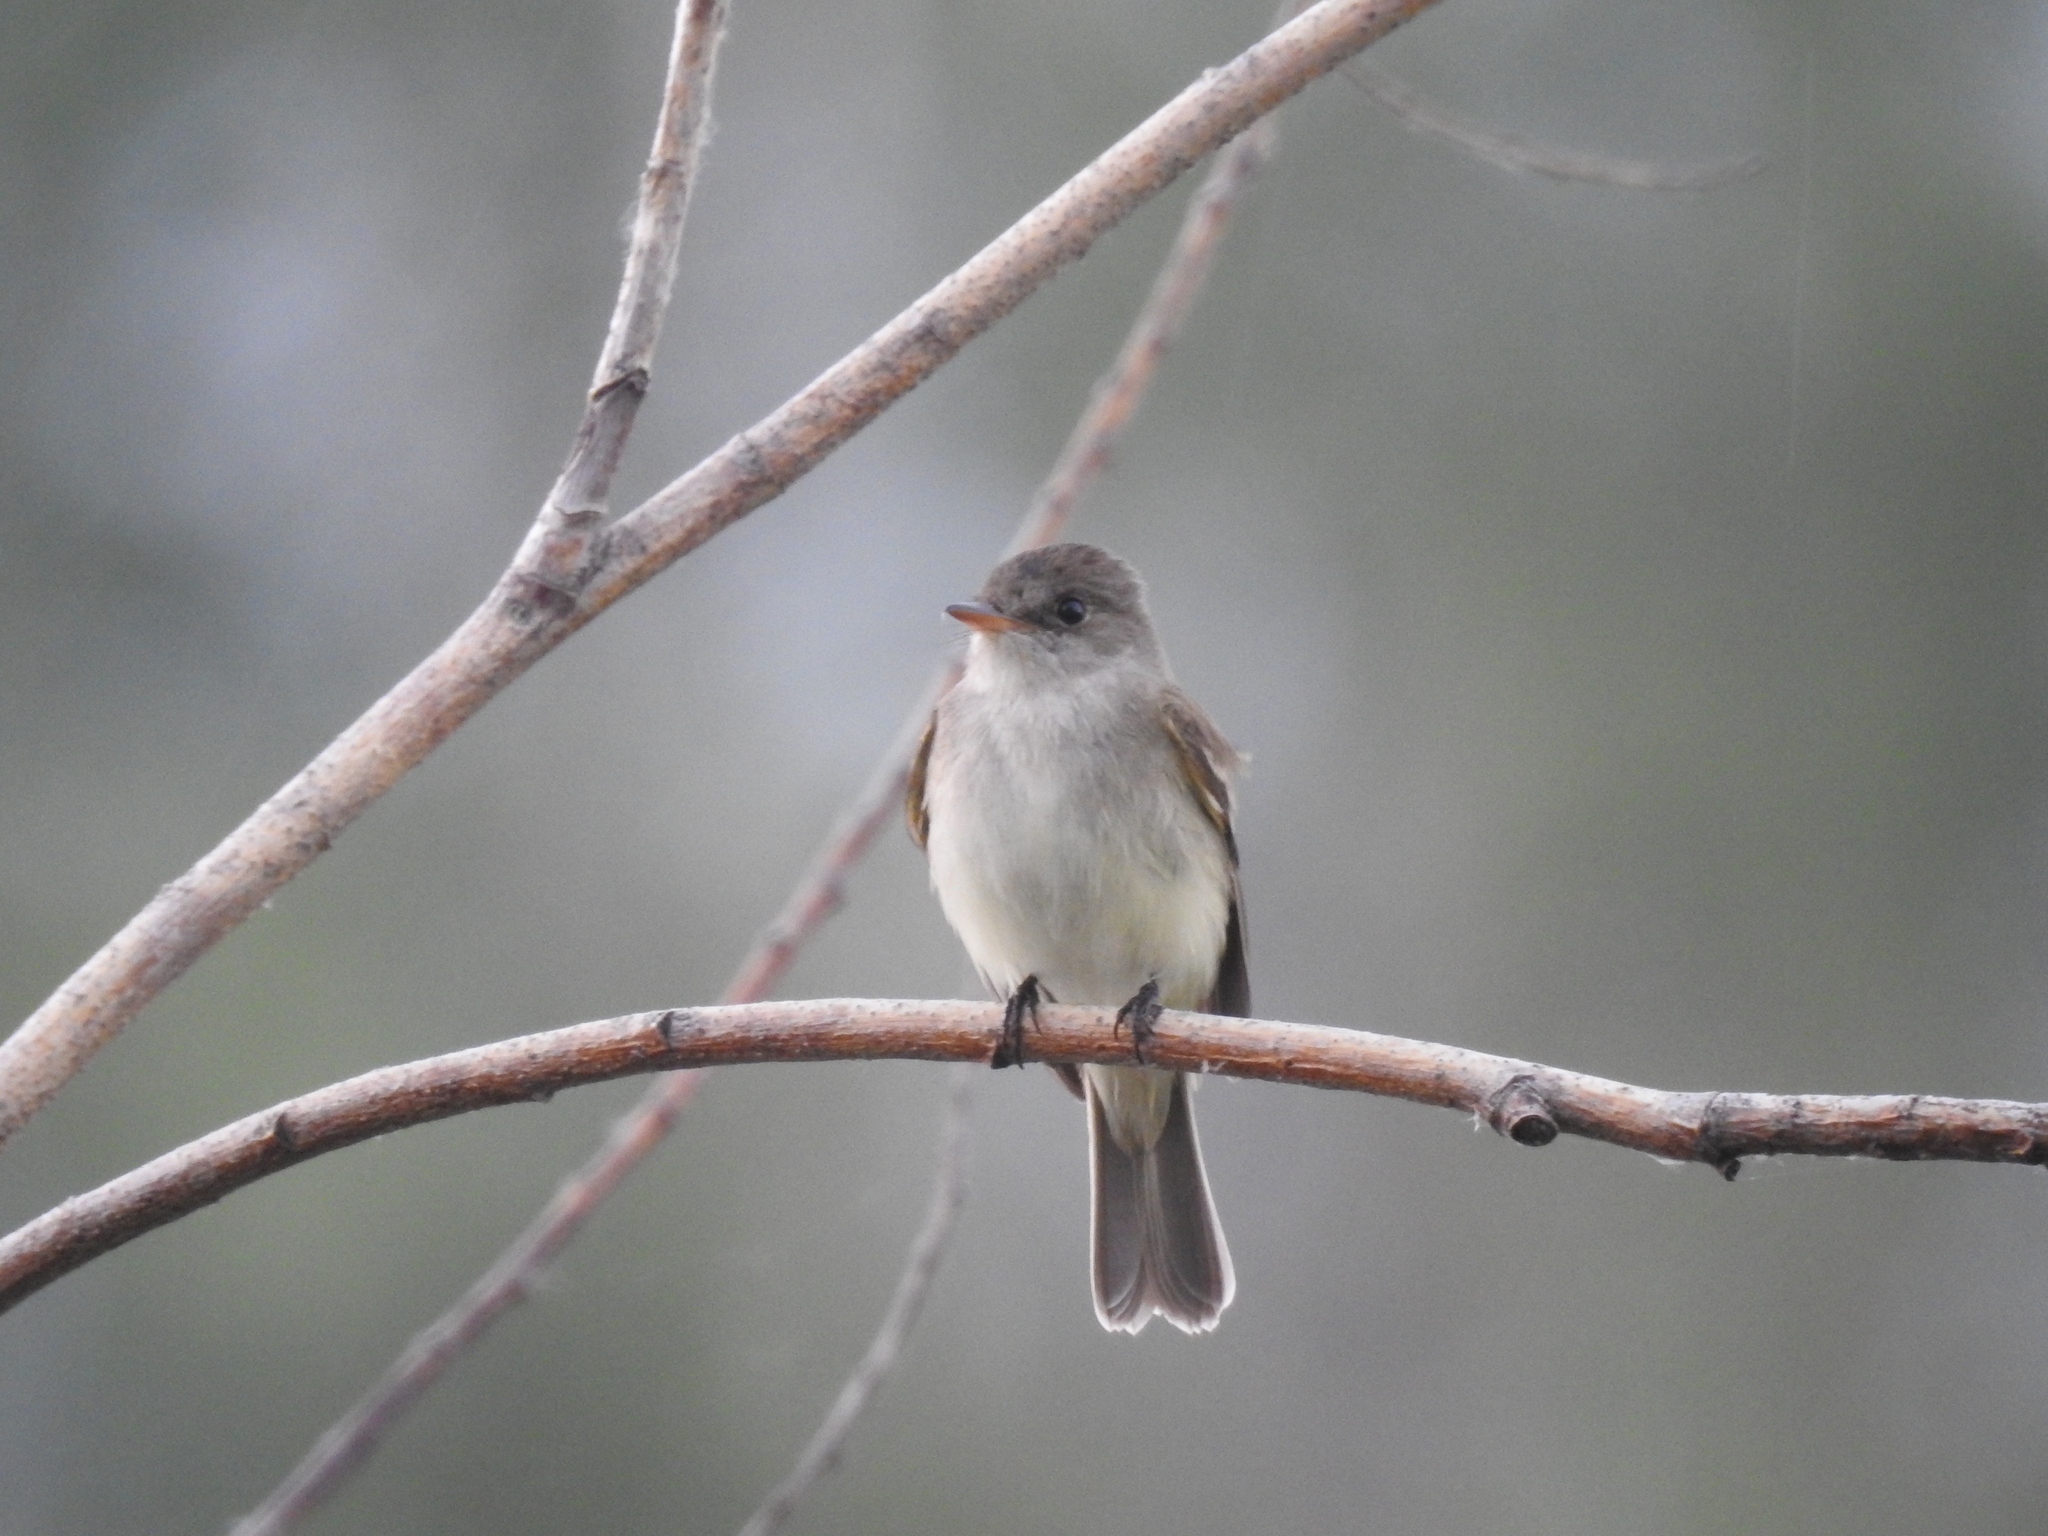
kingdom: Animalia
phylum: Chordata
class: Aves
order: Passeriformes
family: Tyrannidae
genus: Empidonax
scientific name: Empidonax traillii
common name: Willow flycatcher
